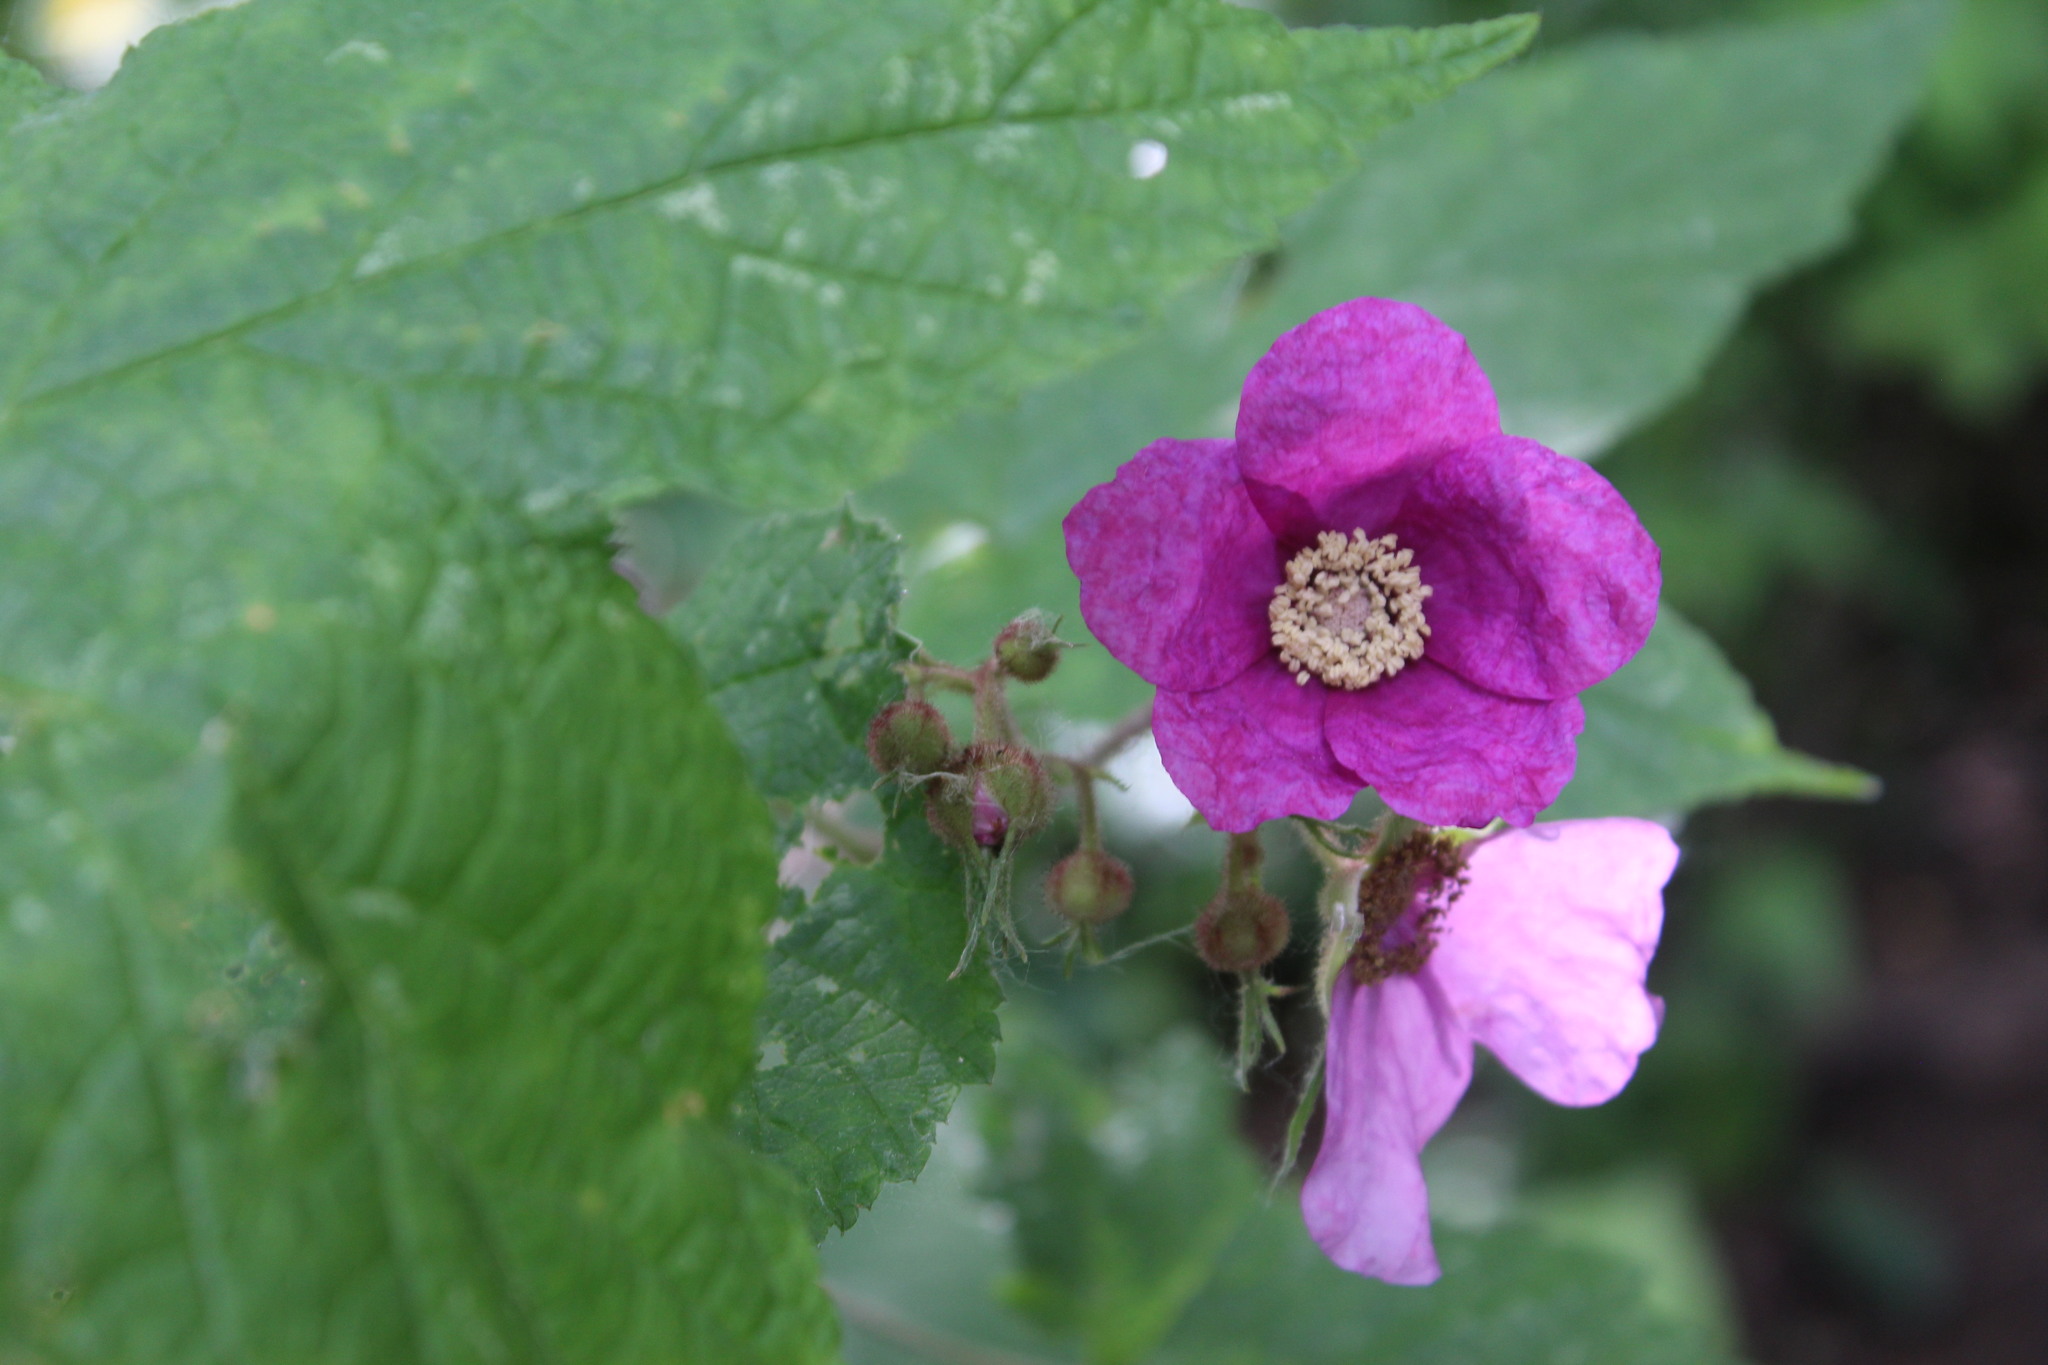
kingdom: Plantae
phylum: Tracheophyta
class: Magnoliopsida
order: Rosales
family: Rosaceae
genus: Rubus
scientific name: Rubus odoratus
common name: Purple-flowered raspberry
